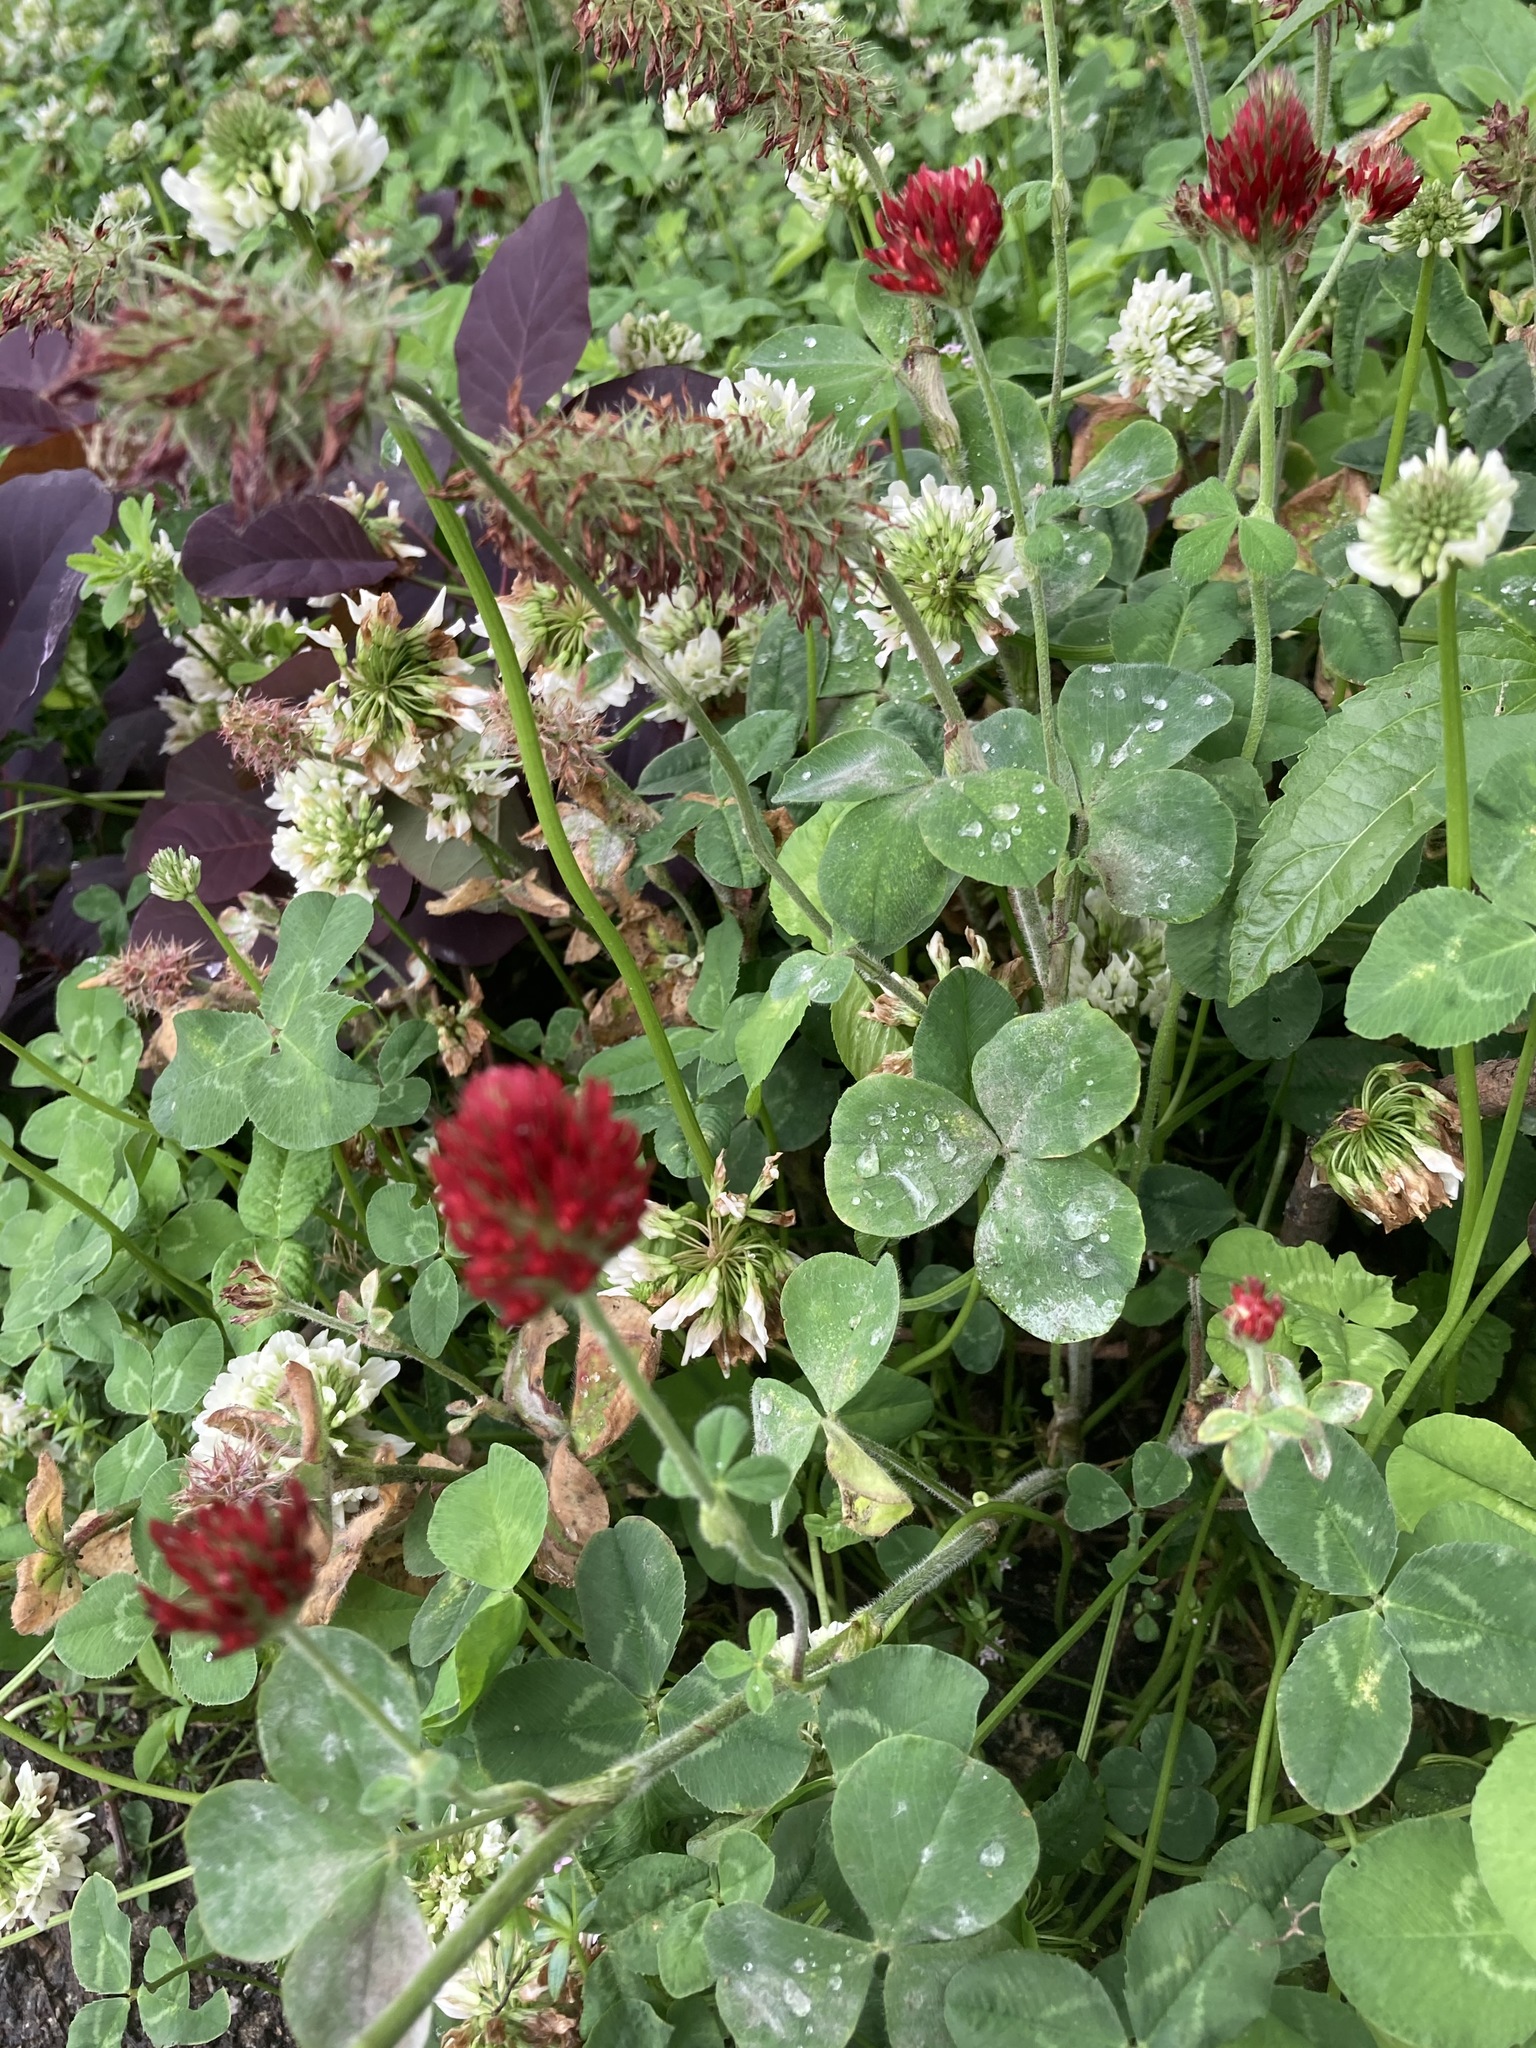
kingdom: Plantae
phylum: Tracheophyta
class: Magnoliopsida
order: Fabales
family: Fabaceae
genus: Trifolium
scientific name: Trifolium incarnatum
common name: Crimson clover
